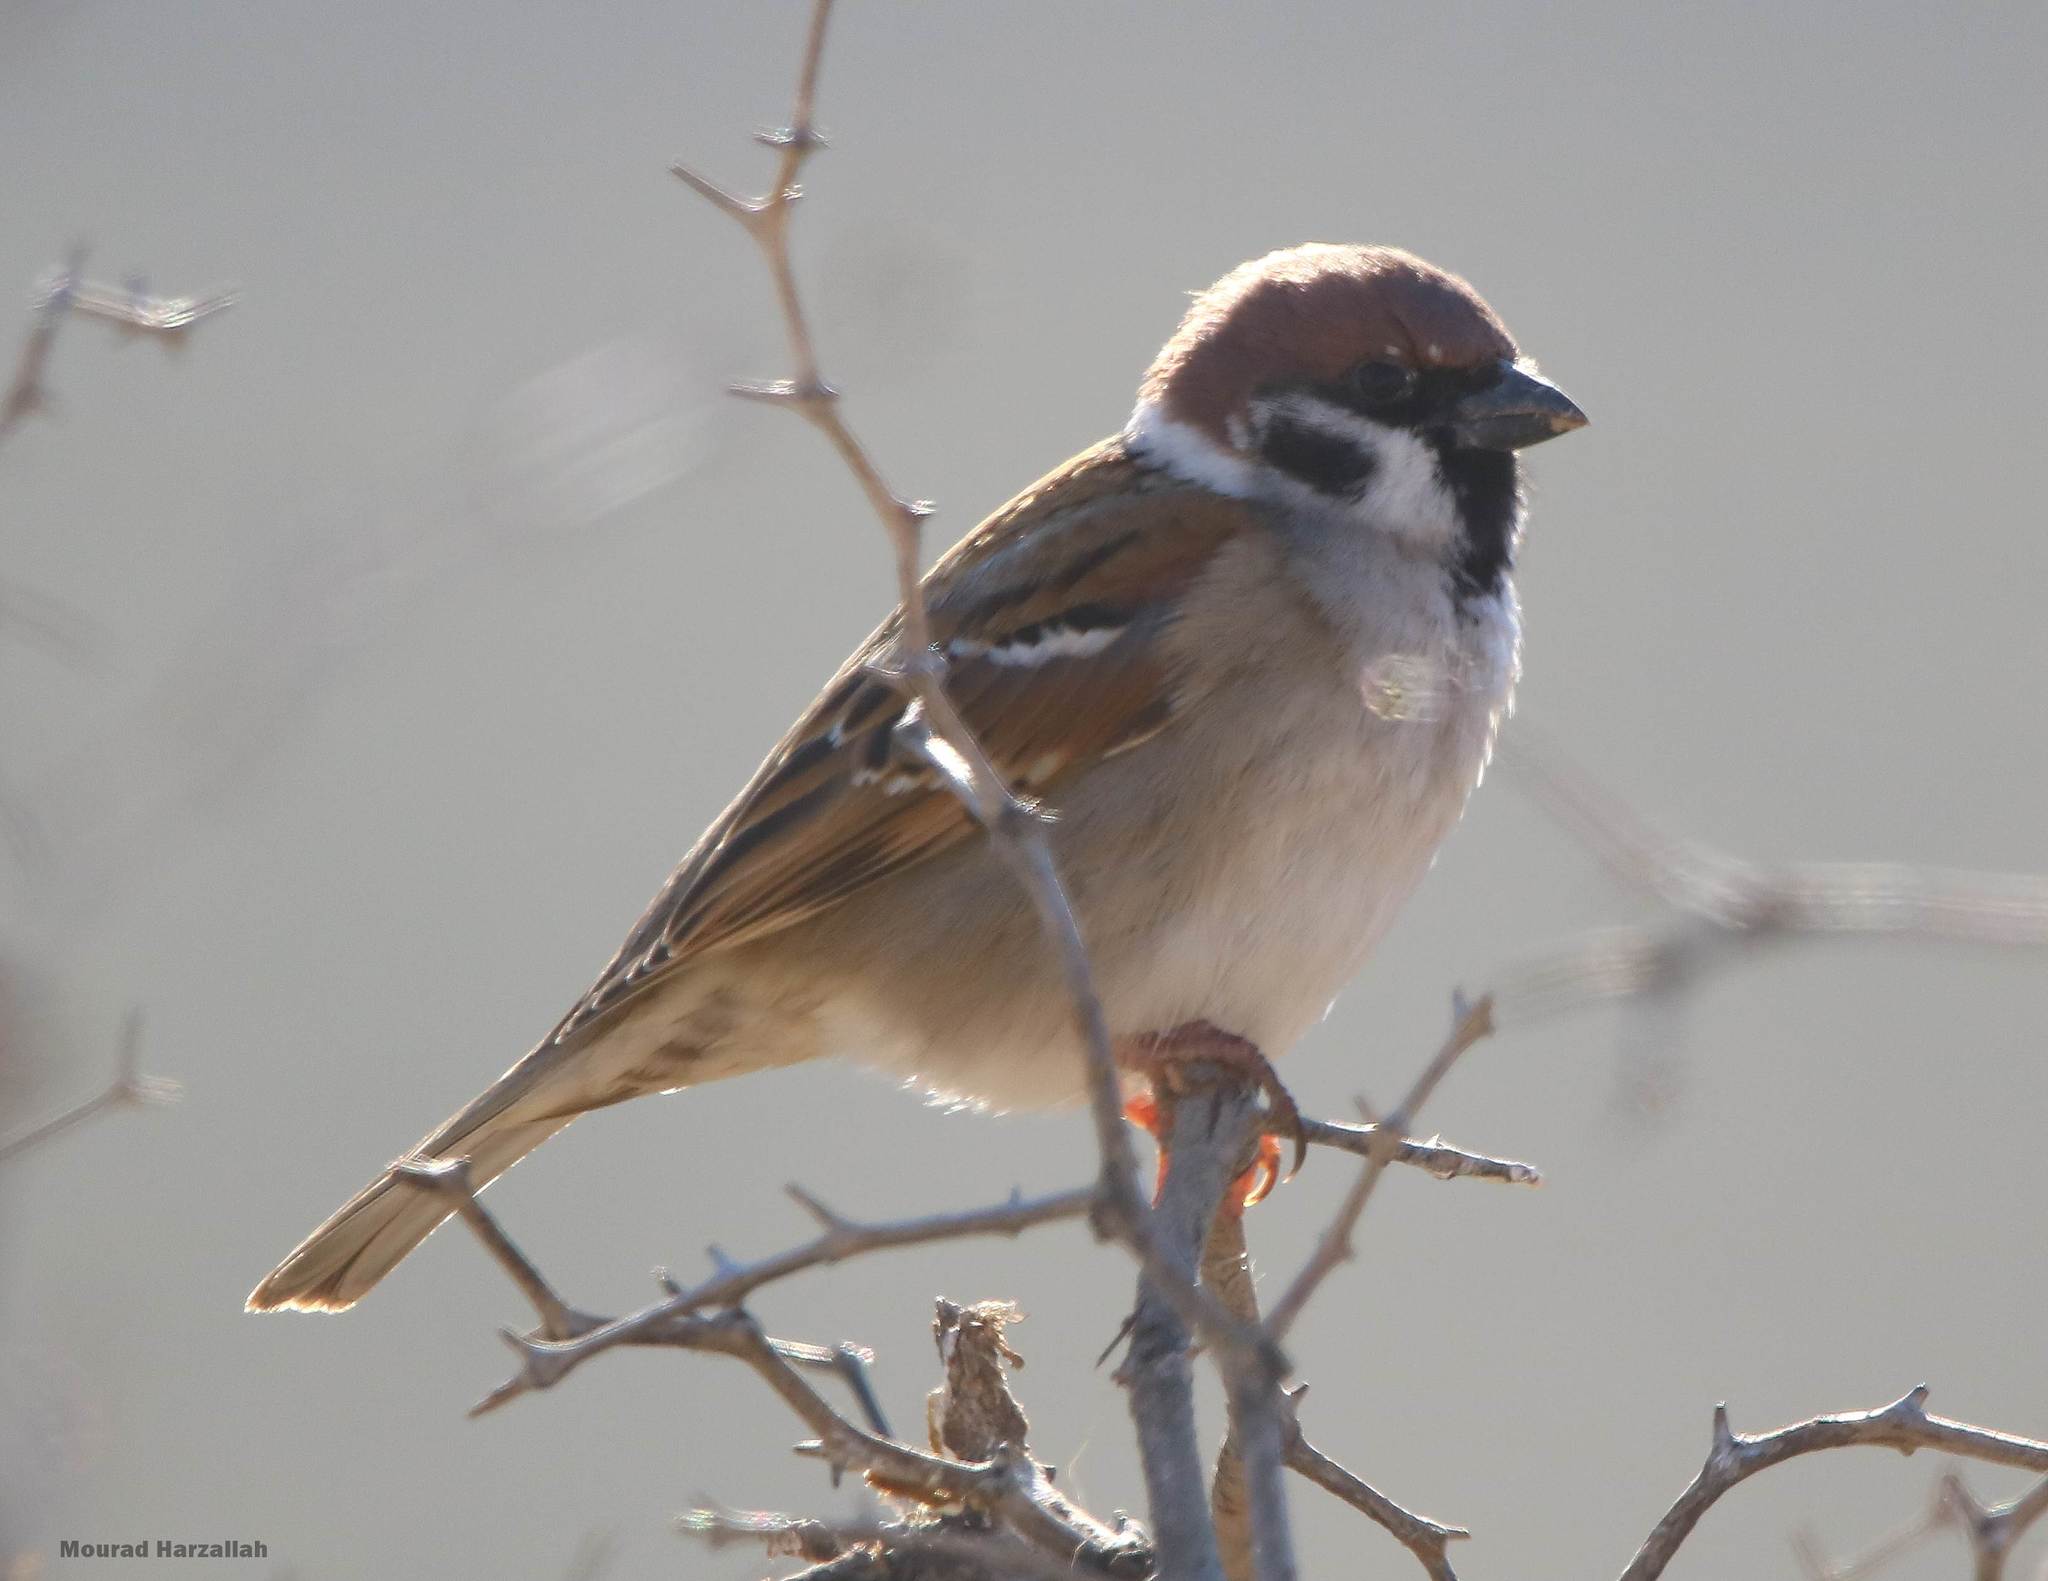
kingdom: Animalia
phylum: Chordata
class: Aves
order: Passeriformes
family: Passeridae
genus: Passer
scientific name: Passer montanus
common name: Eurasian tree sparrow
